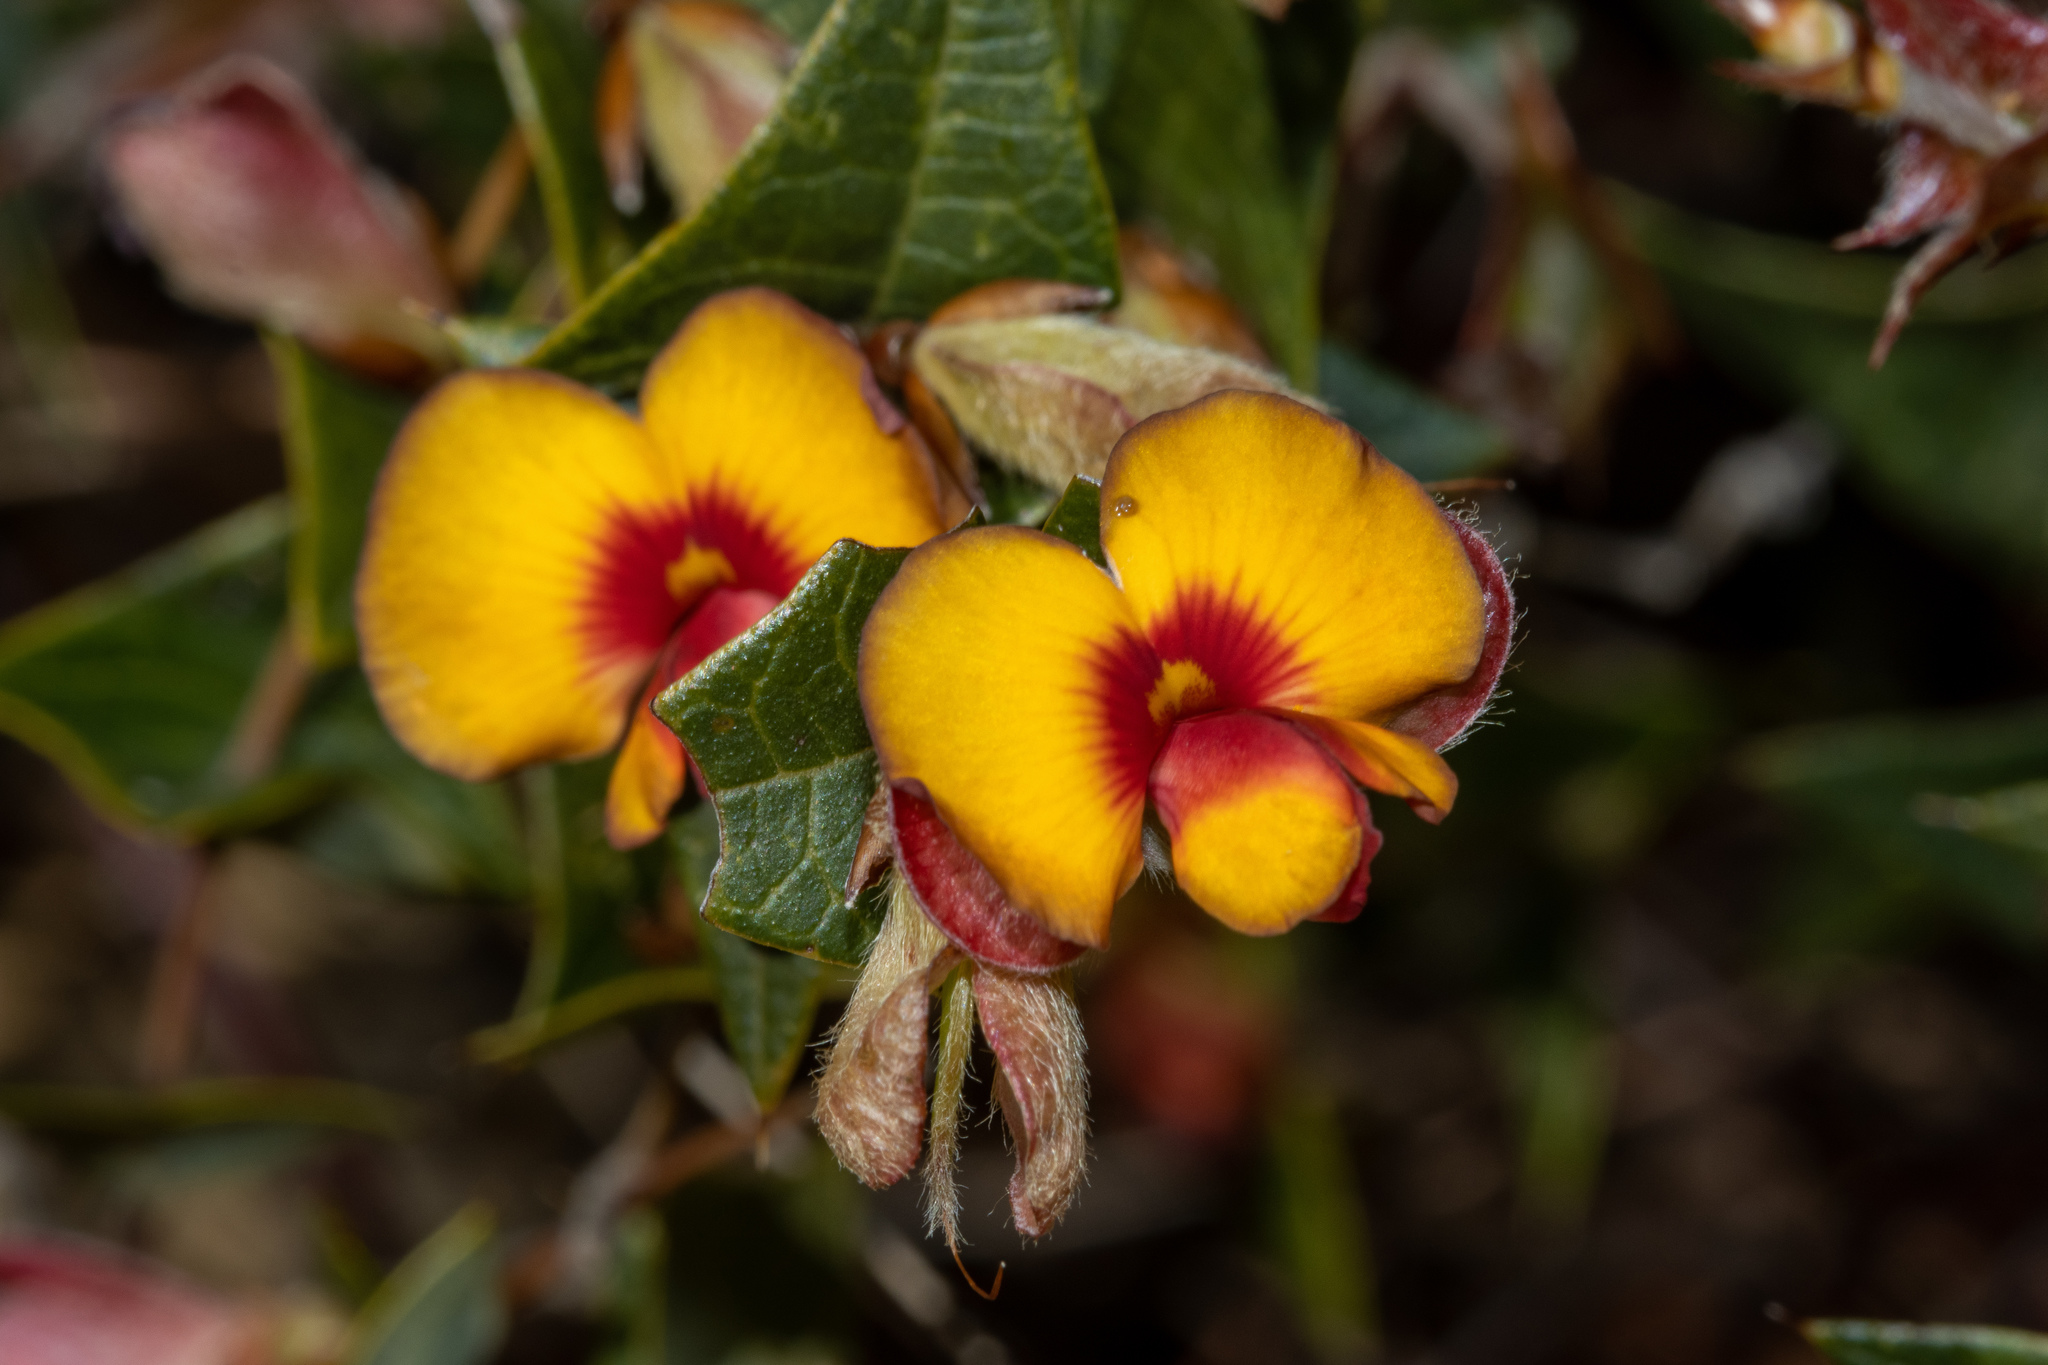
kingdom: Plantae
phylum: Tracheophyta
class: Magnoliopsida
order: Fabales
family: Fabaceae
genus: Platylobium
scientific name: Platylobium obtusangulum
